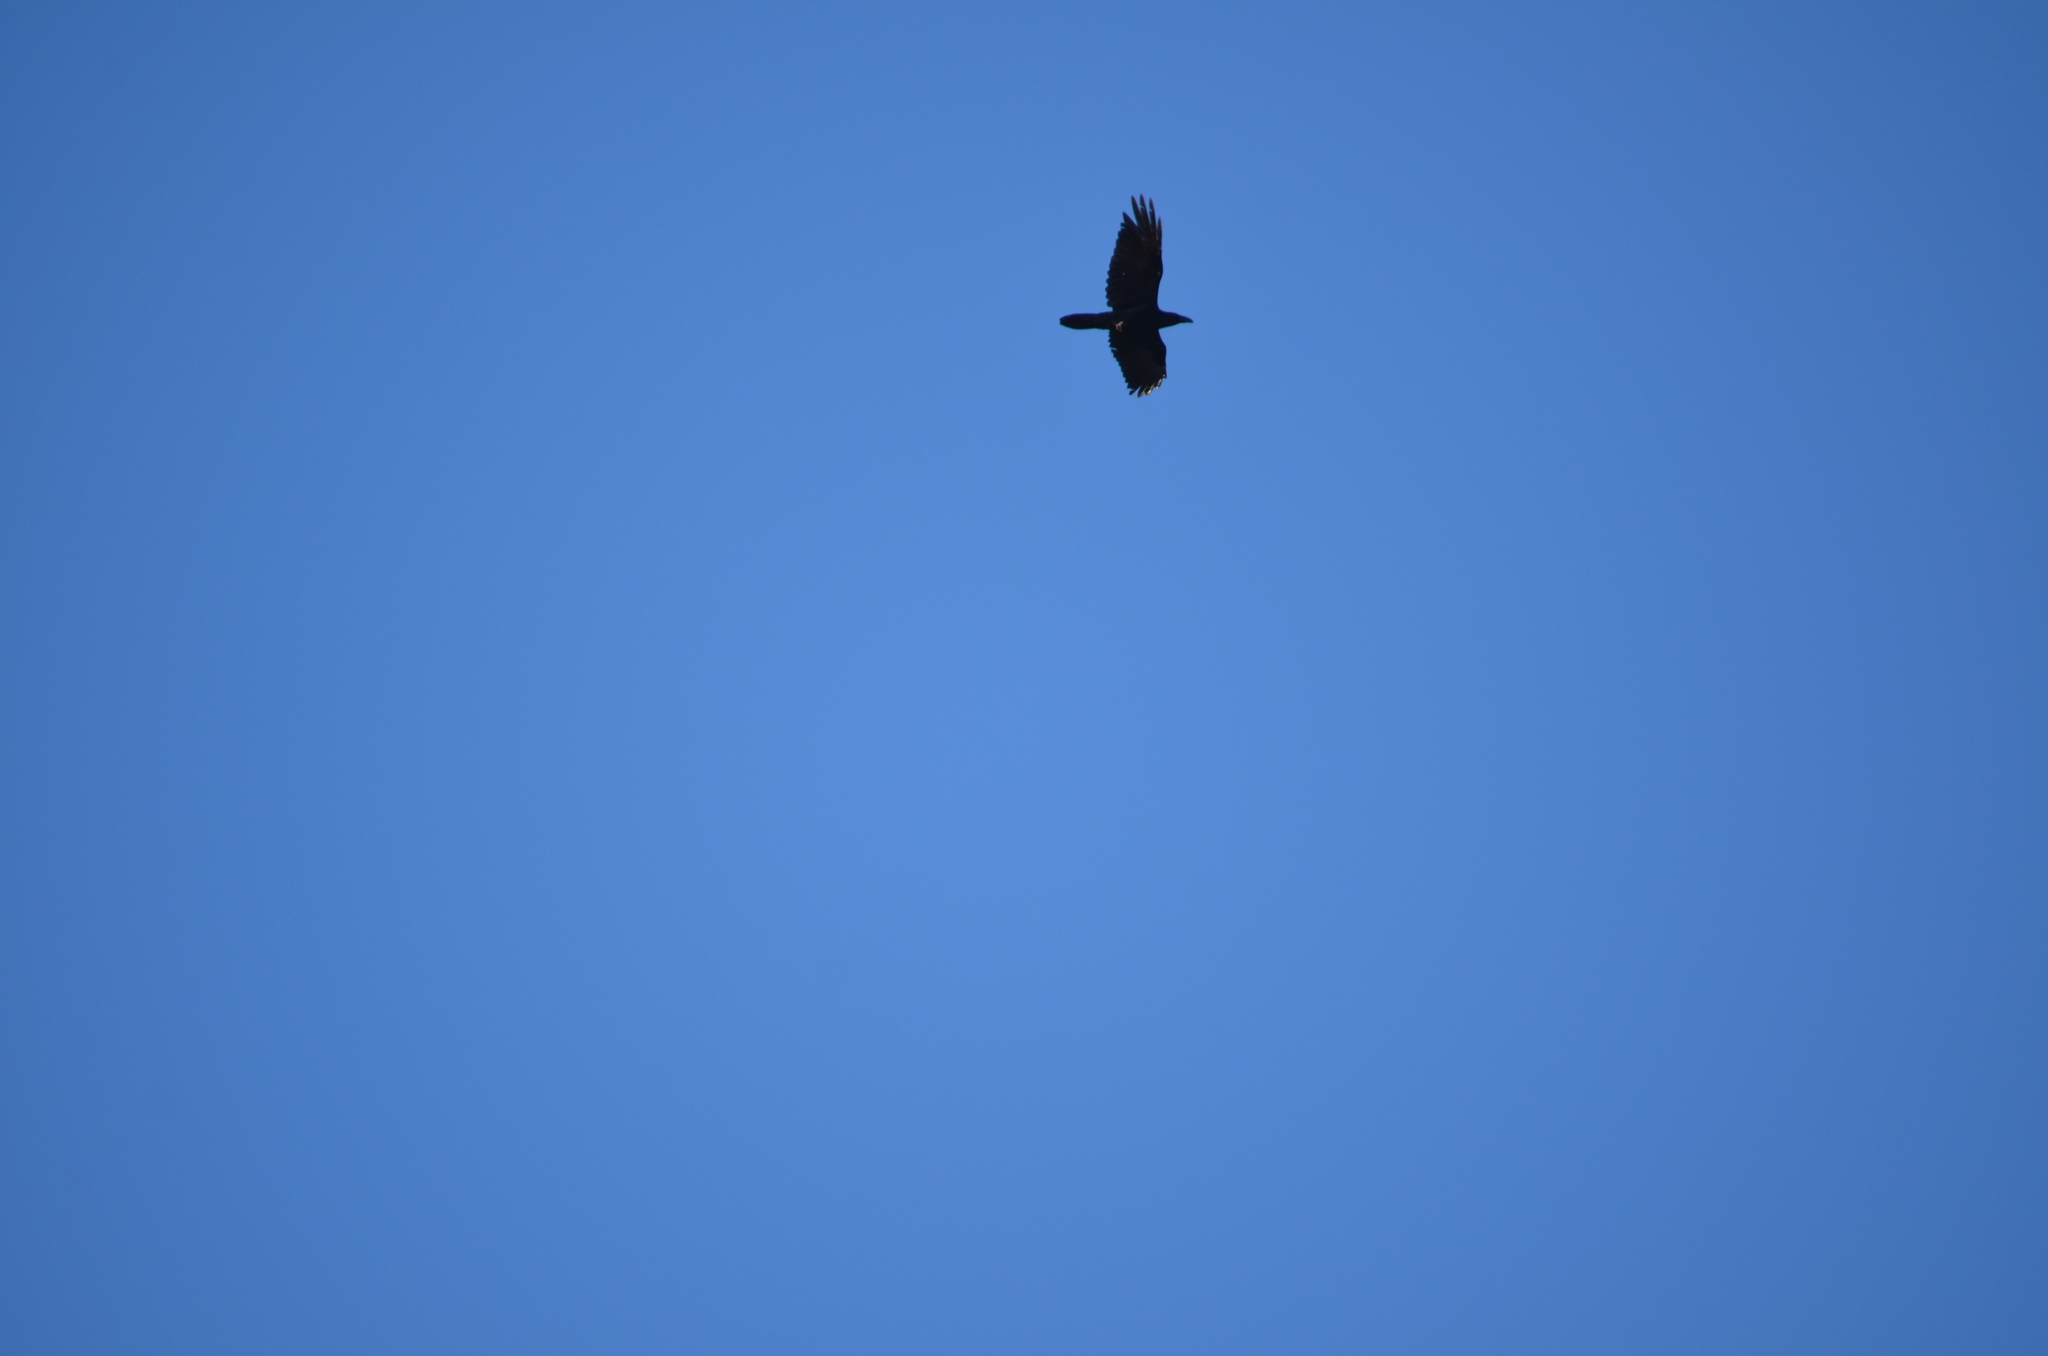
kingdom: Animalia
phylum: Chordata
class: Aves
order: Passeriformes
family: Corvidae
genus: Corvus
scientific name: Corvus corax
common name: Common raven
